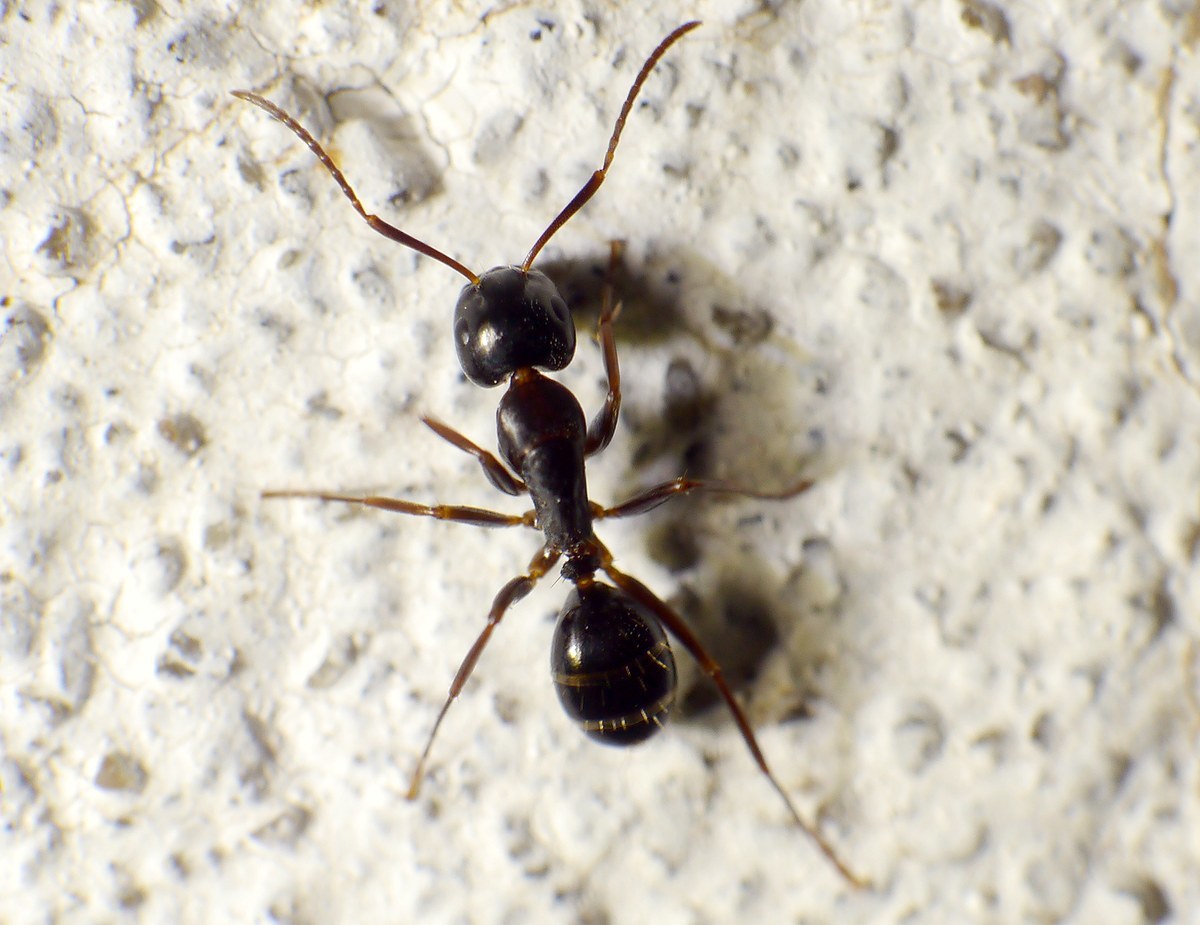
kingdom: Animalia
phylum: Arthropoda
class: Insecta
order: Hymenoptera
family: Formicidae
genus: Camponotus
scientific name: Camponotus fallax
